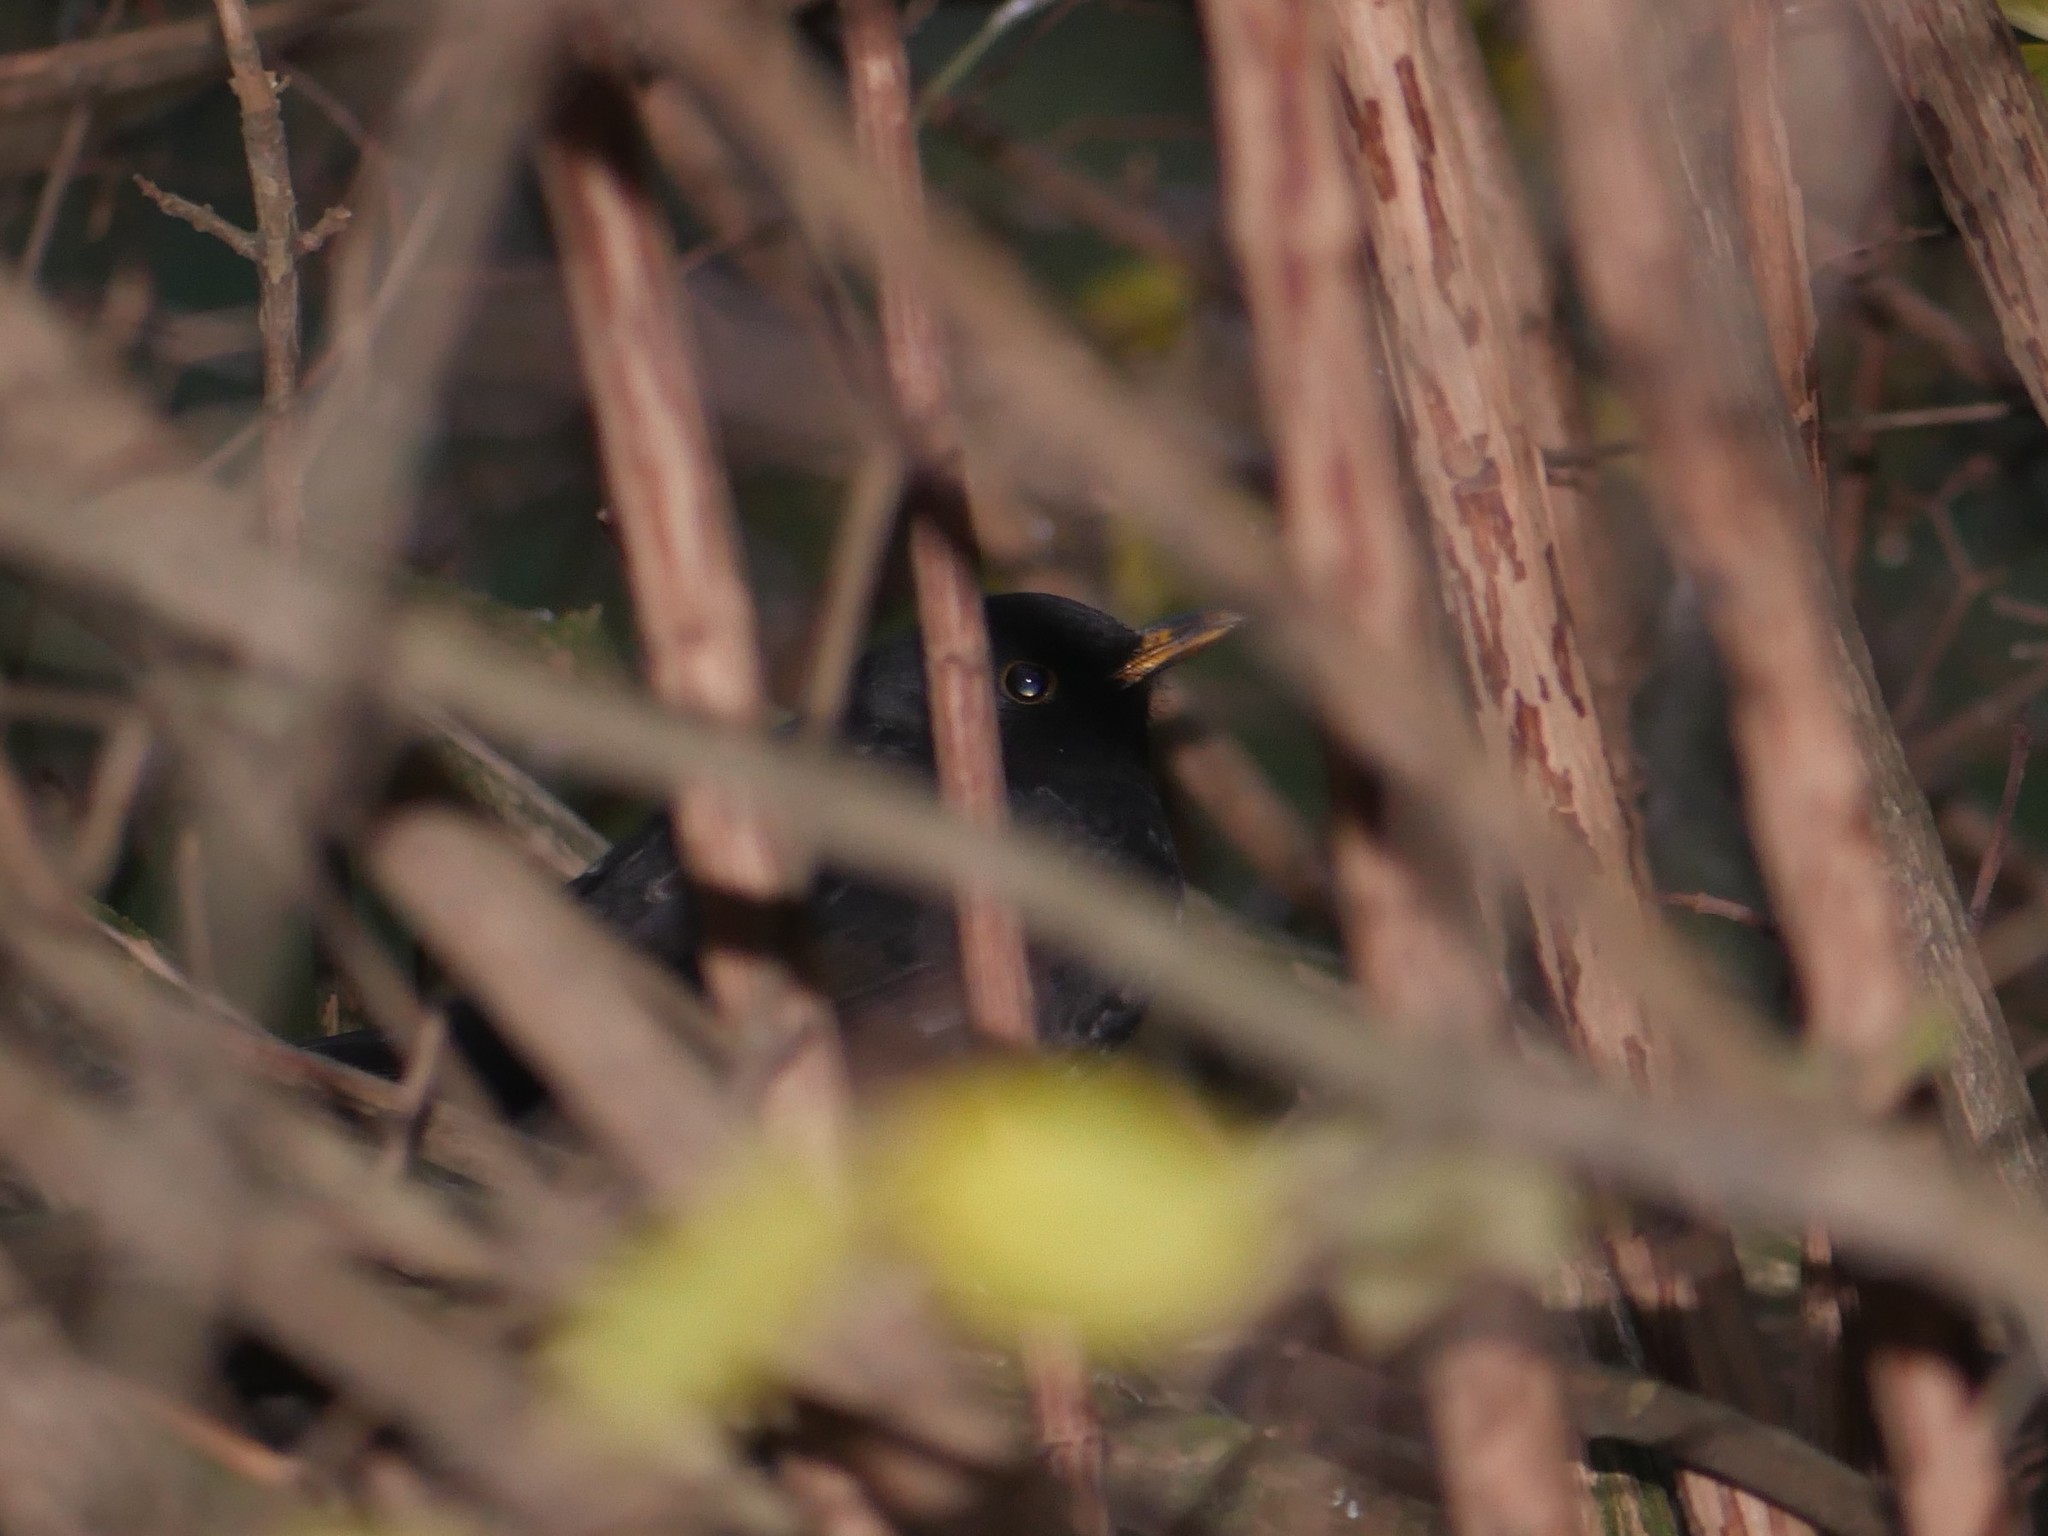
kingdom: Animalia
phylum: Chordata
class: Aves
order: Passeriformes
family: Turdidae
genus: Turdus
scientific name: Turdus merula
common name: Common blackbird
